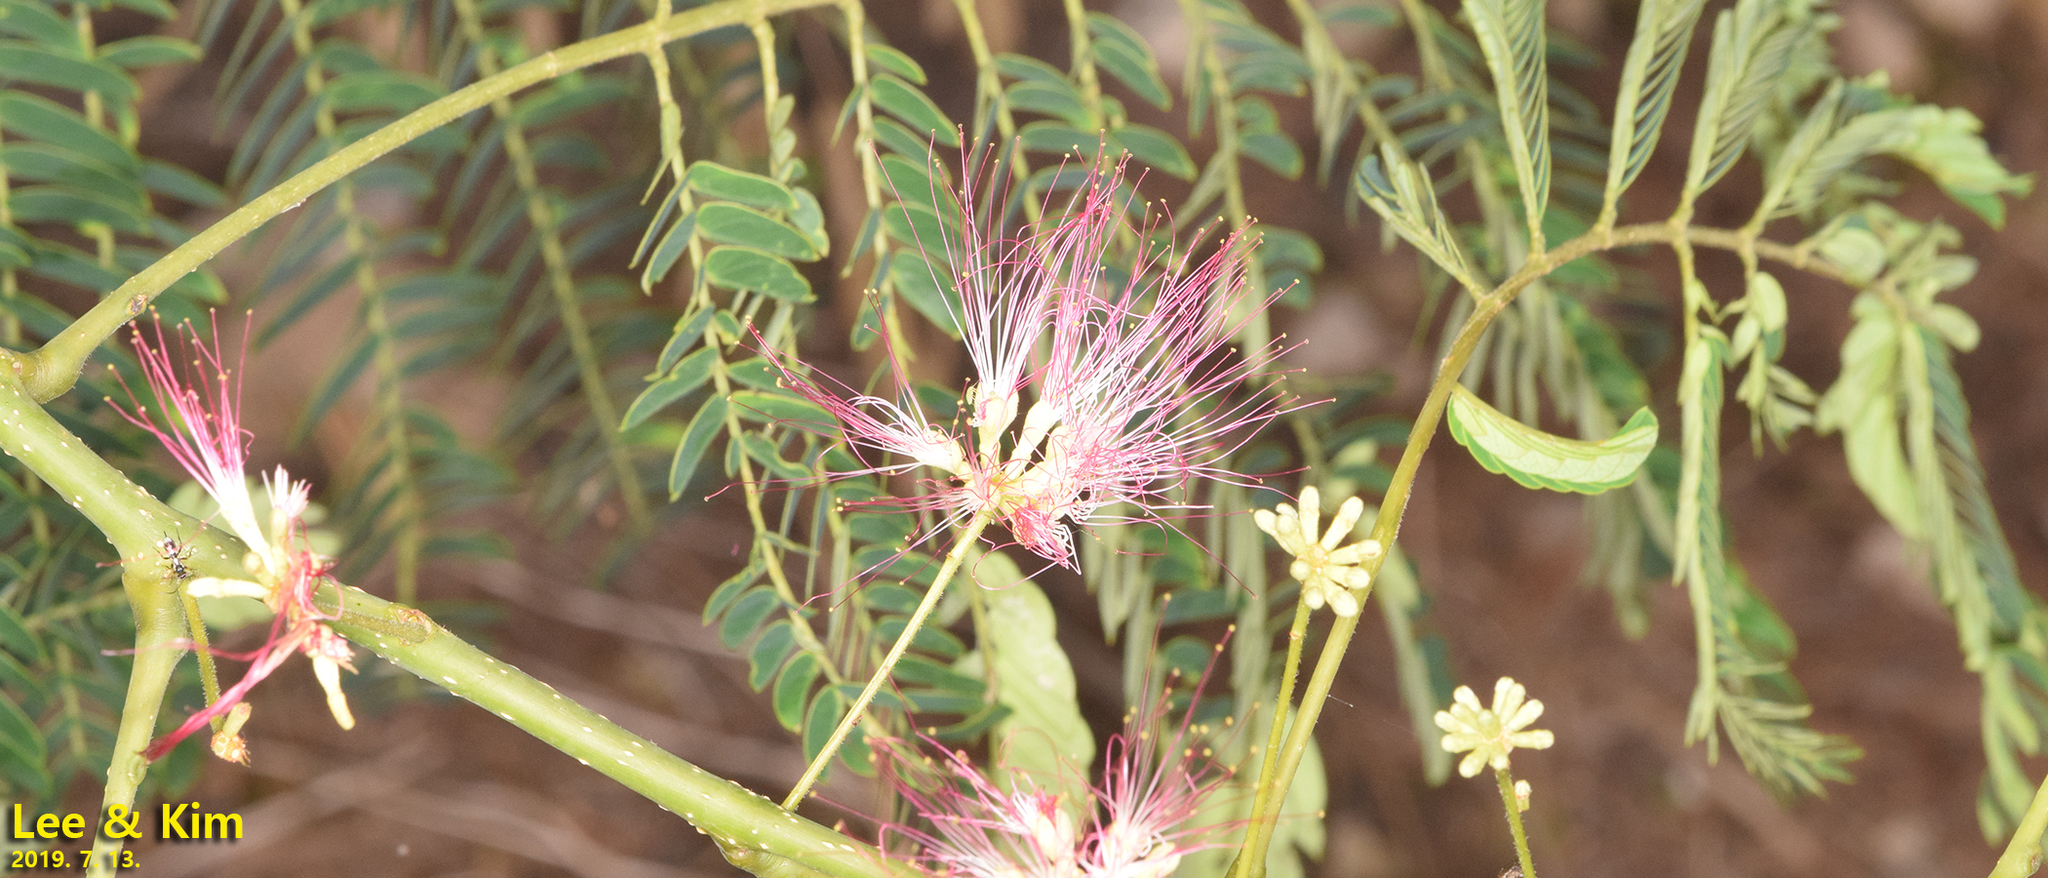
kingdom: Plantae
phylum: Tracheophyta
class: Magnoliopsida
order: Fabales
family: Fabaceae
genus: Albizia
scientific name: Albizia julibrissin
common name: Silktree
